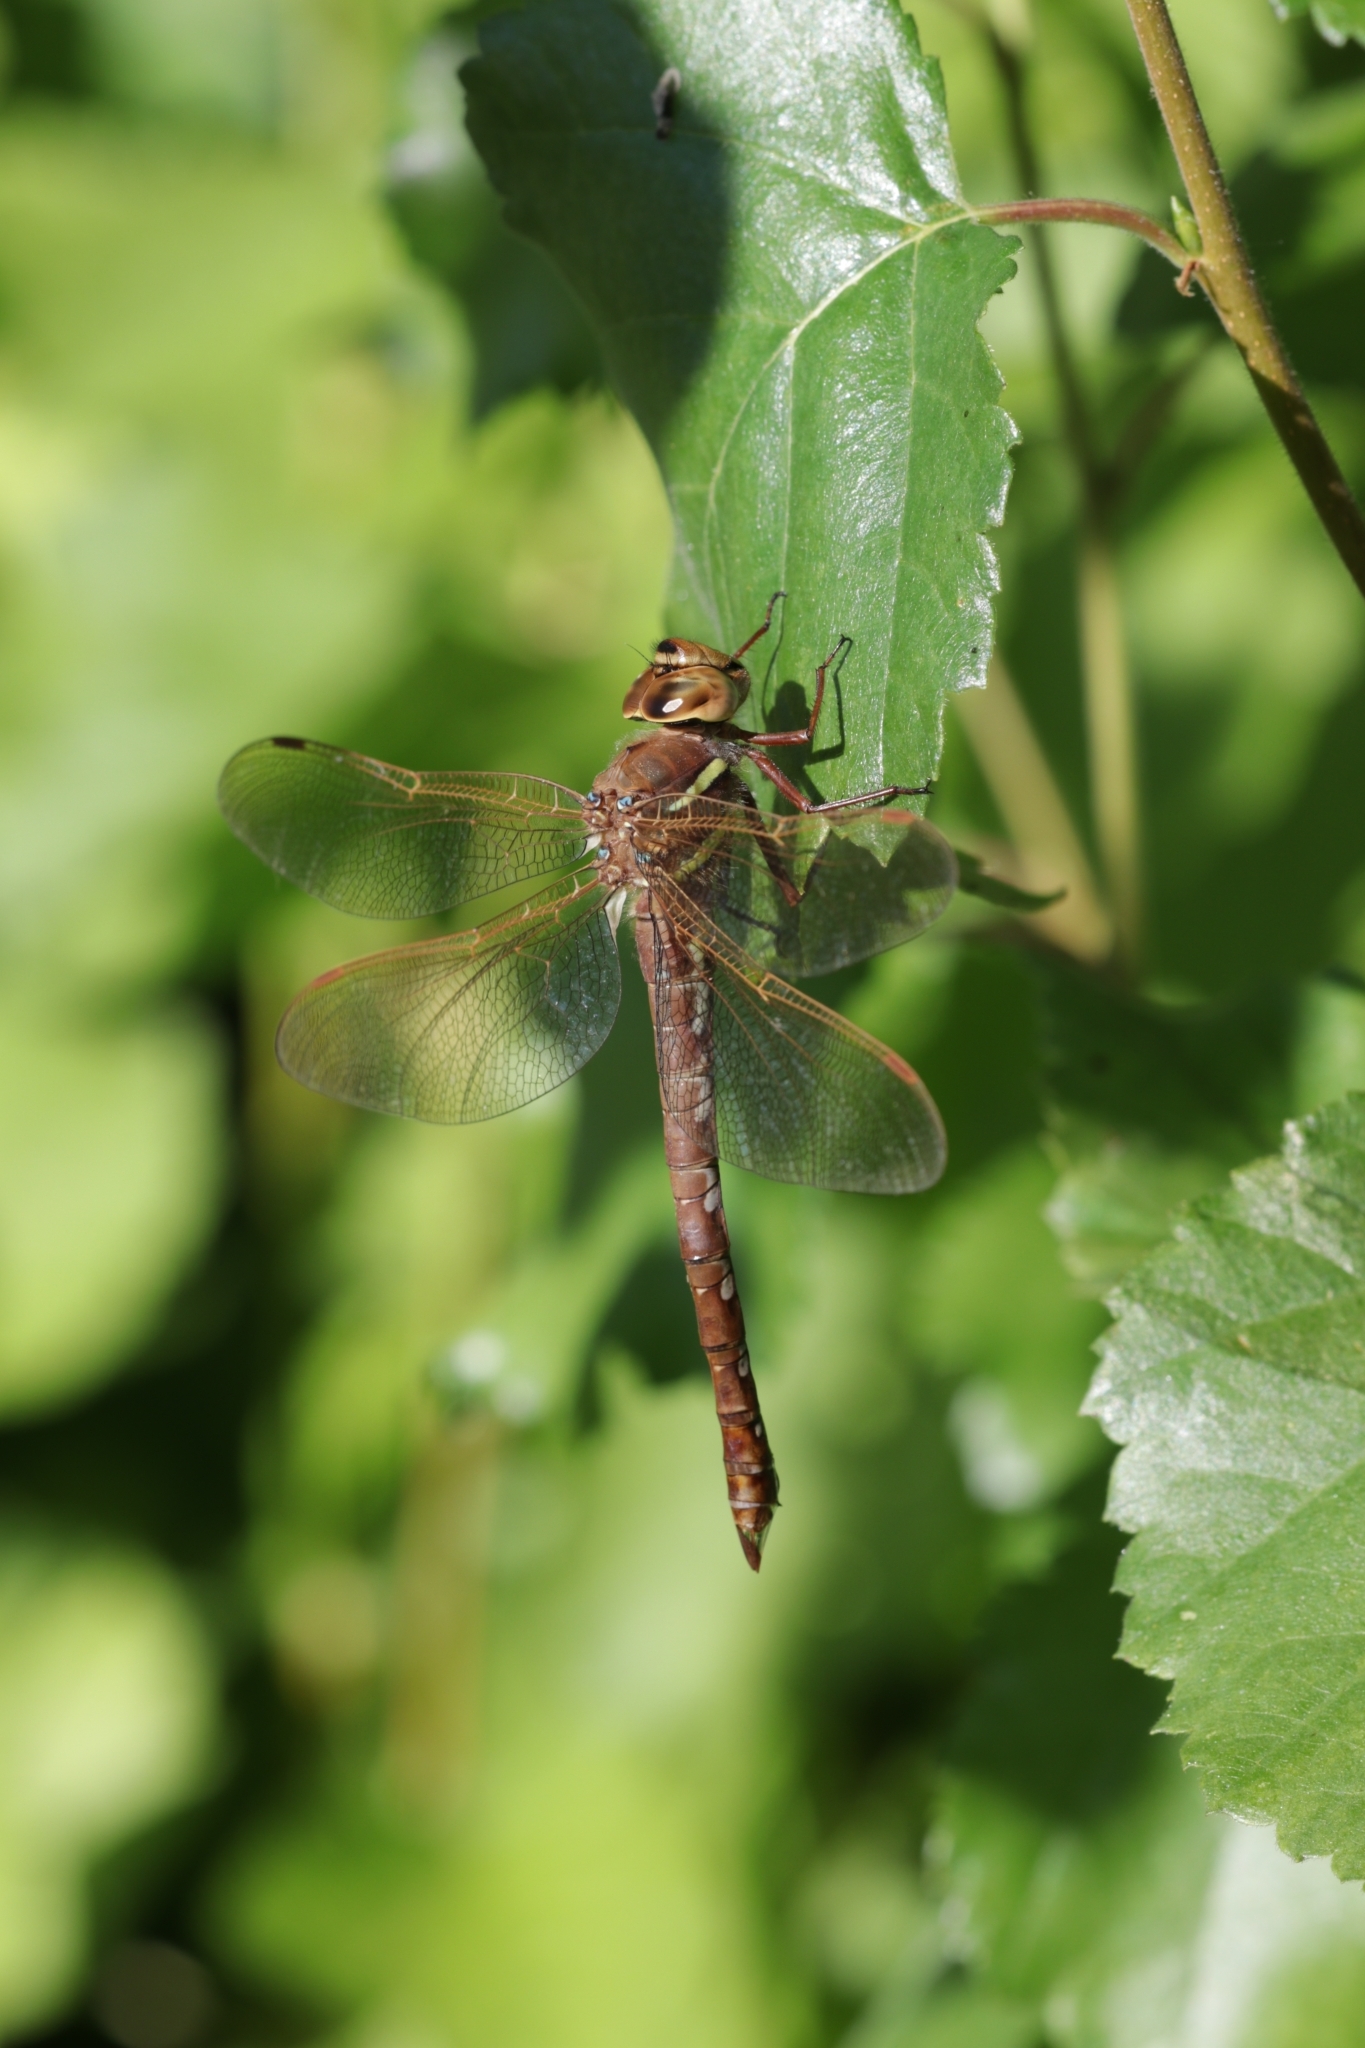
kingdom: Animalia
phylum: Arthropoda
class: Insecta
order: Odonata
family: Aeshnidae
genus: Aeshna
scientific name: Aeshna grandis
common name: Brown hawker
